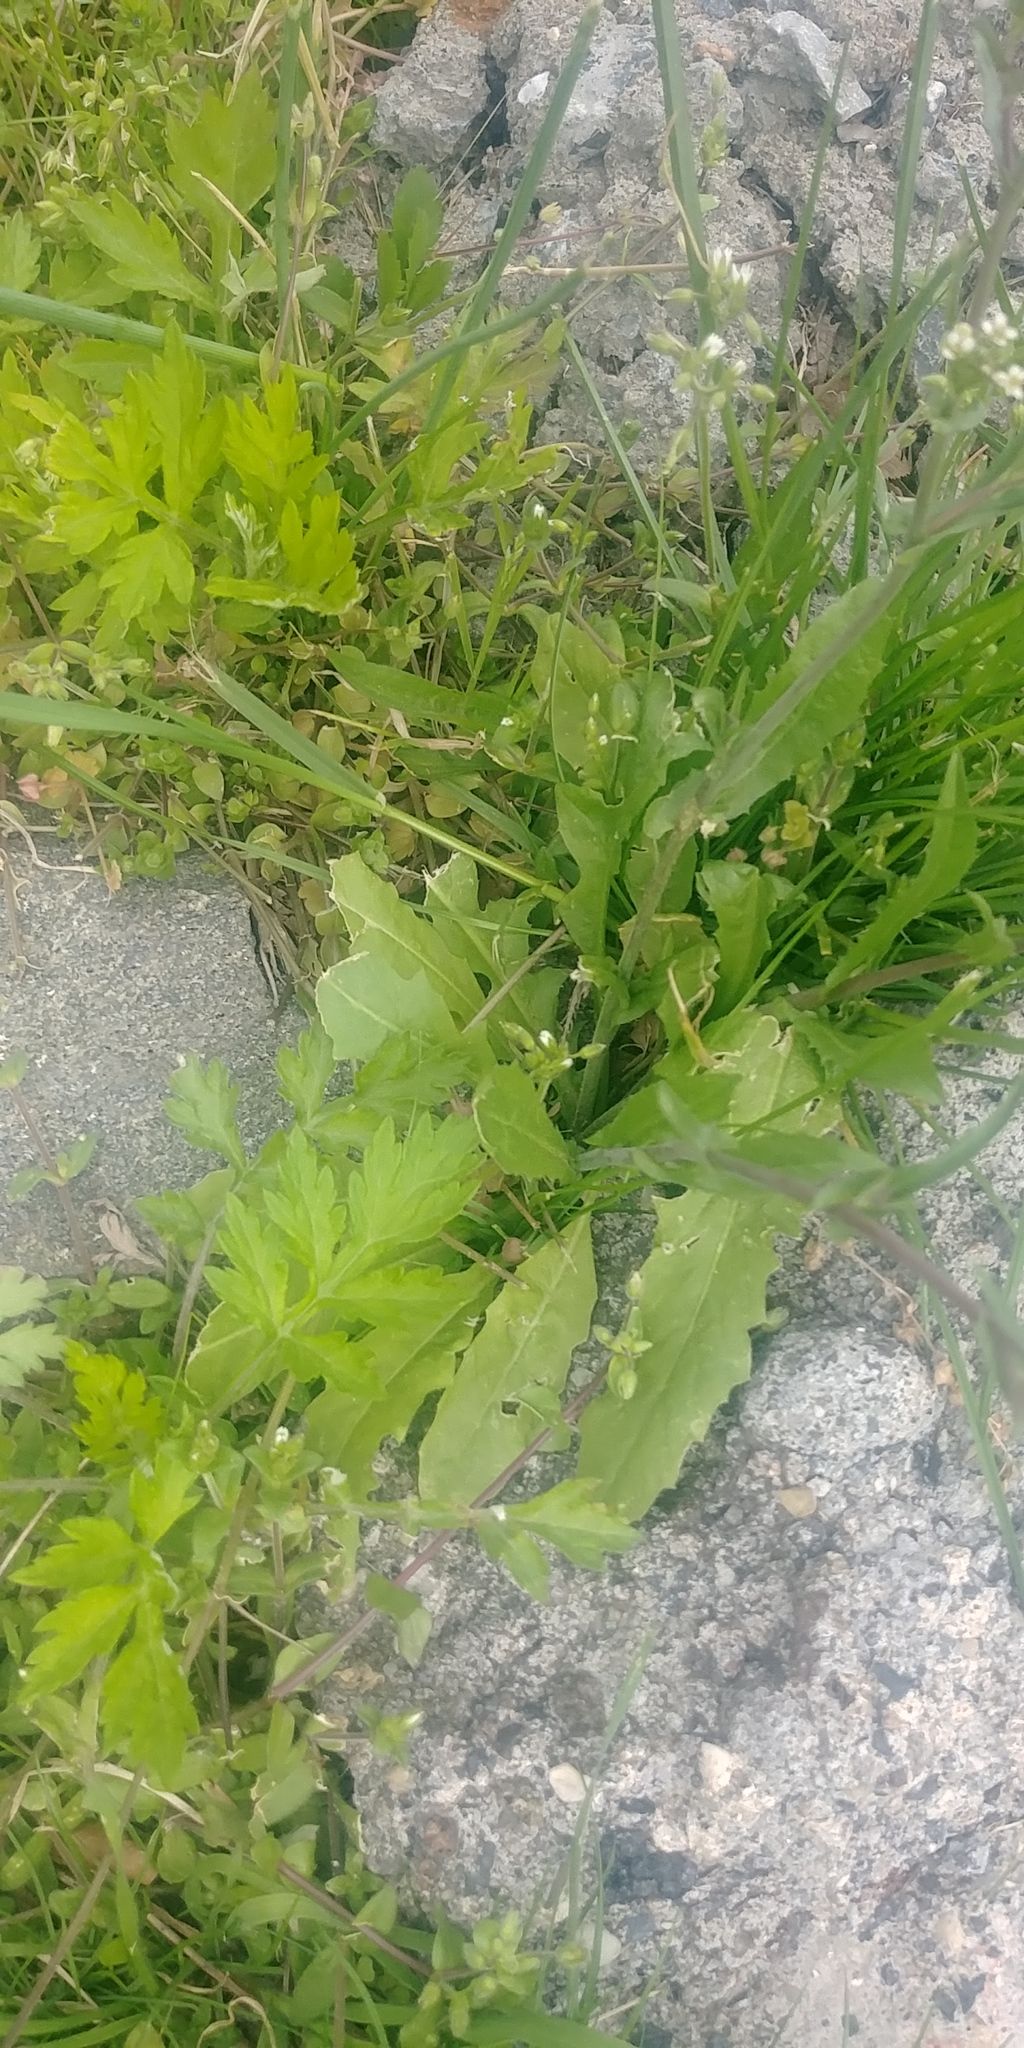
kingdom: Plantae
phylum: Tracheophyta
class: Magnoliopsida
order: Asterales
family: Asteraceae
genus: Taraxacum
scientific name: Taraxacum officinale
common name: Common dandelion
